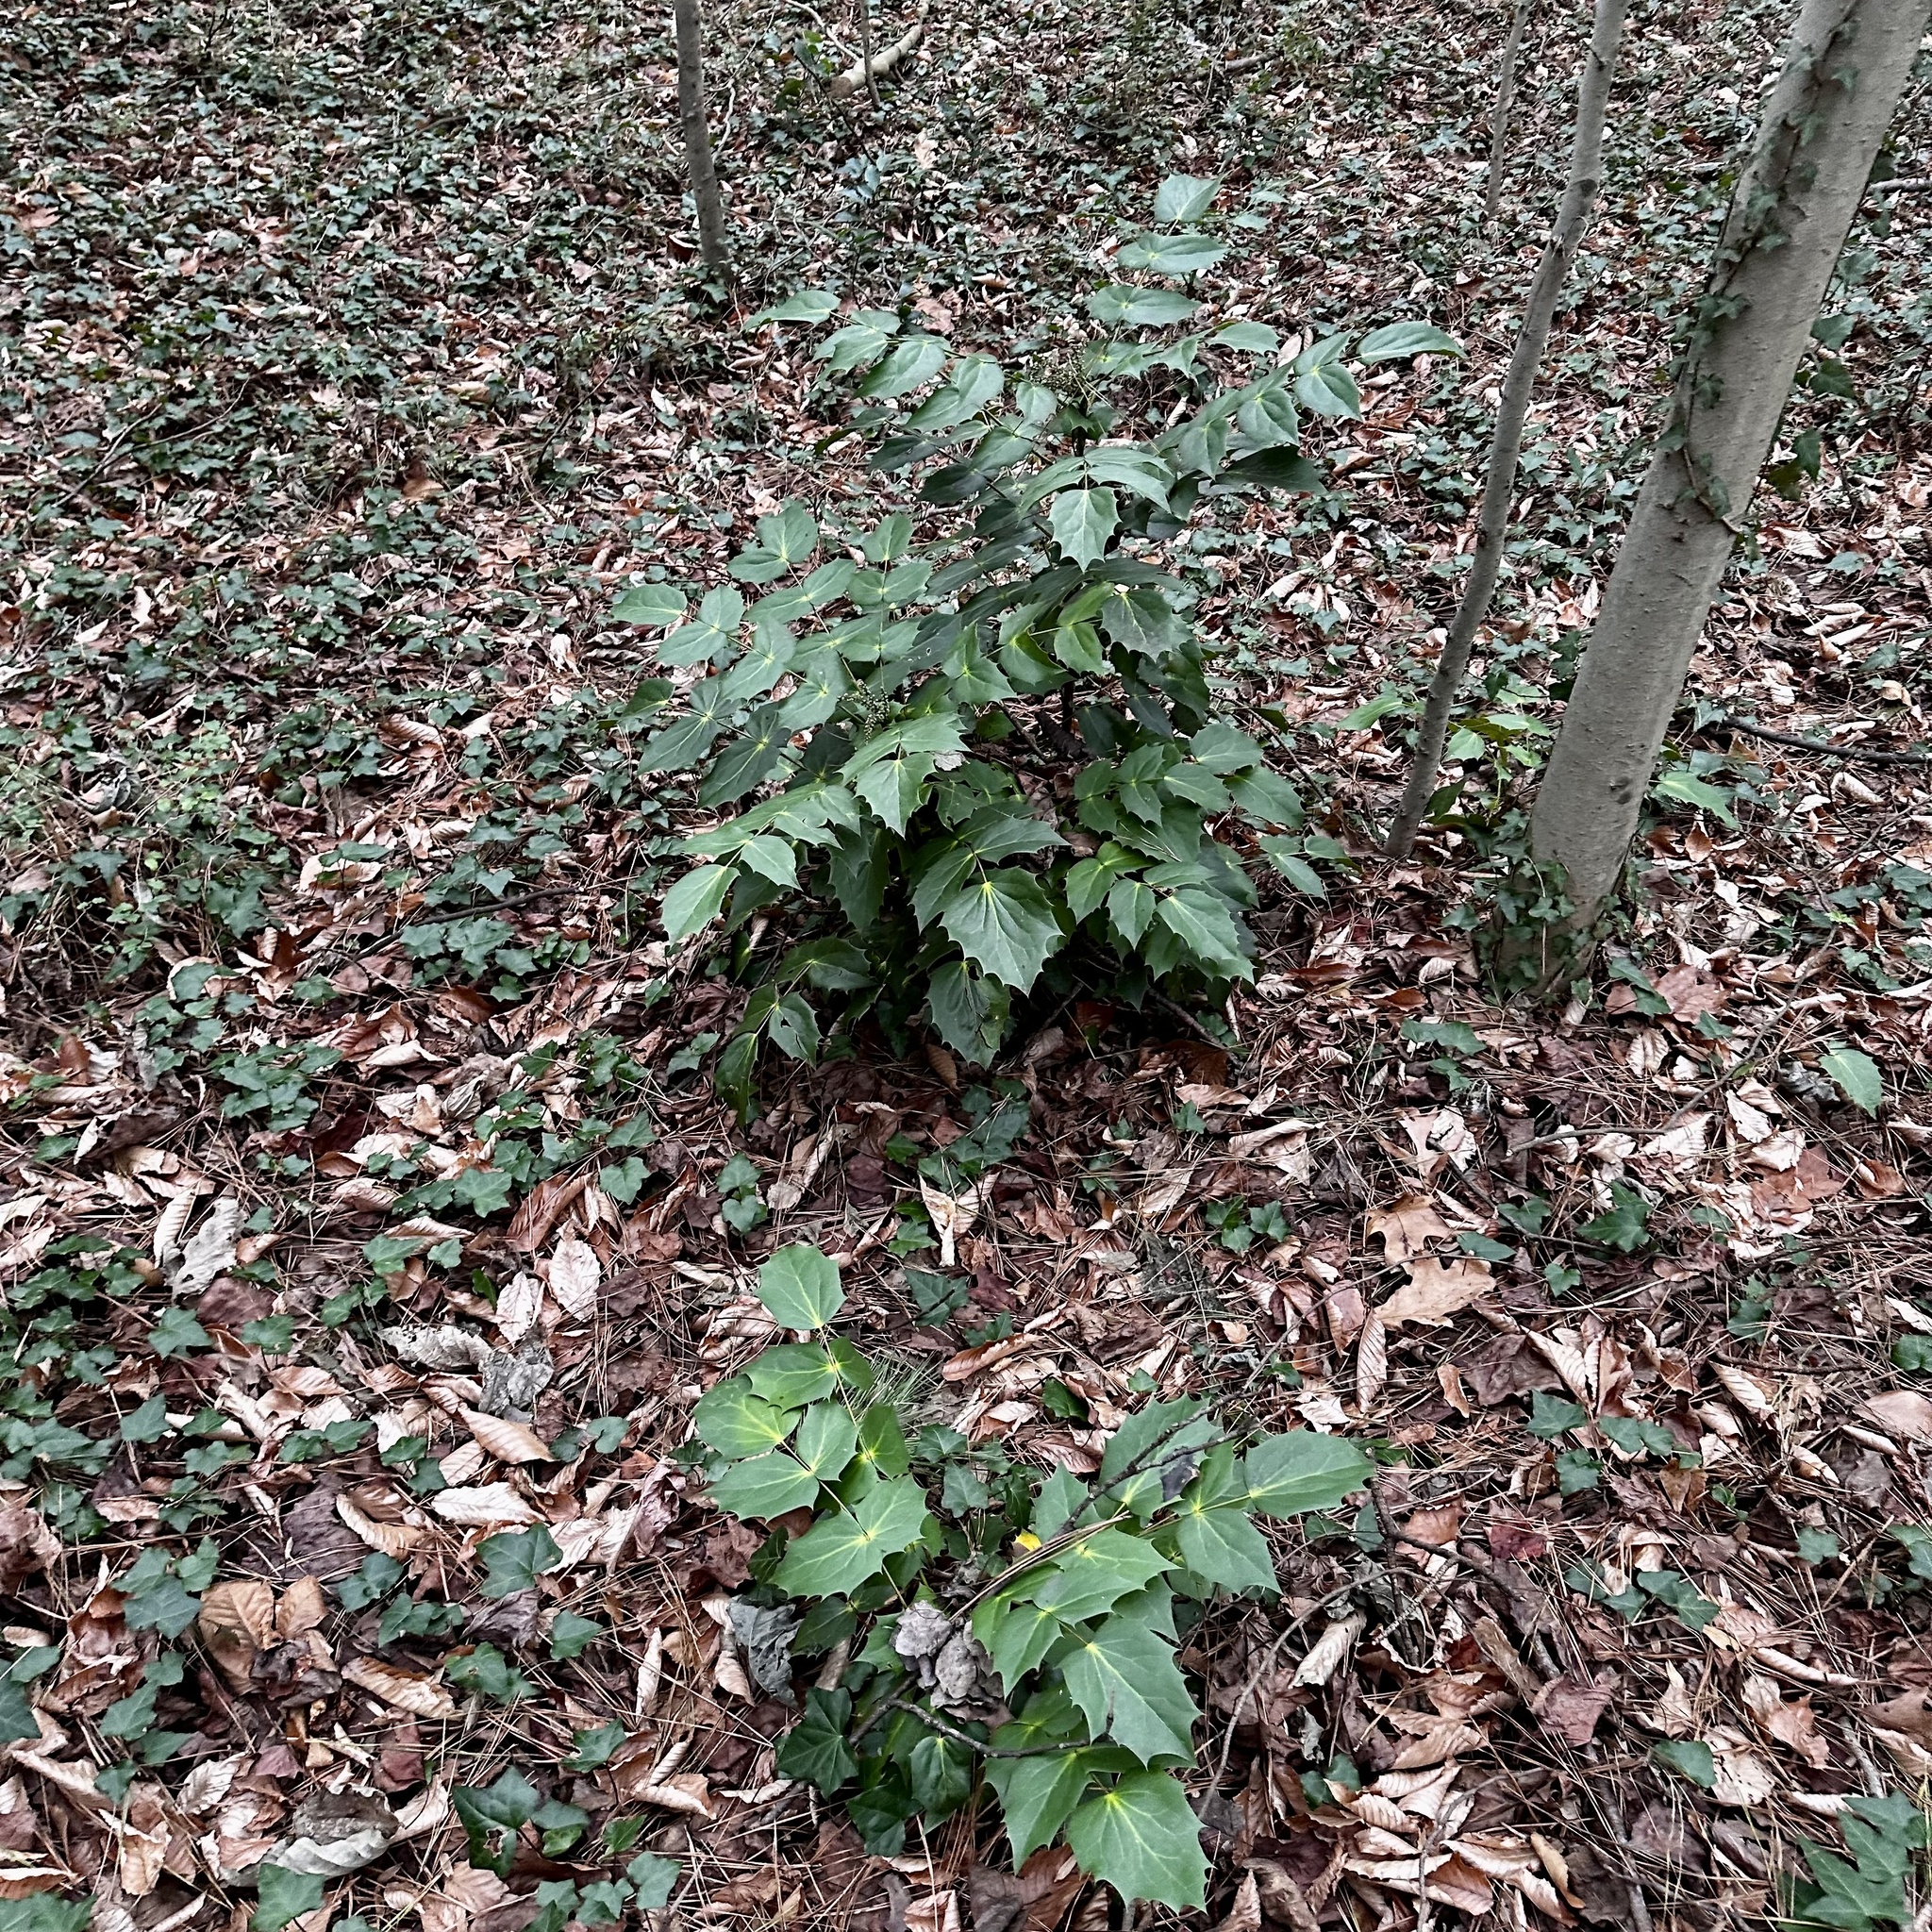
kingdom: Plantae
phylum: Tracheophyta
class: Magnoliopsida
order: Ranunculales
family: Berberidaceae
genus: Mahonia
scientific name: Mahonia bealei
